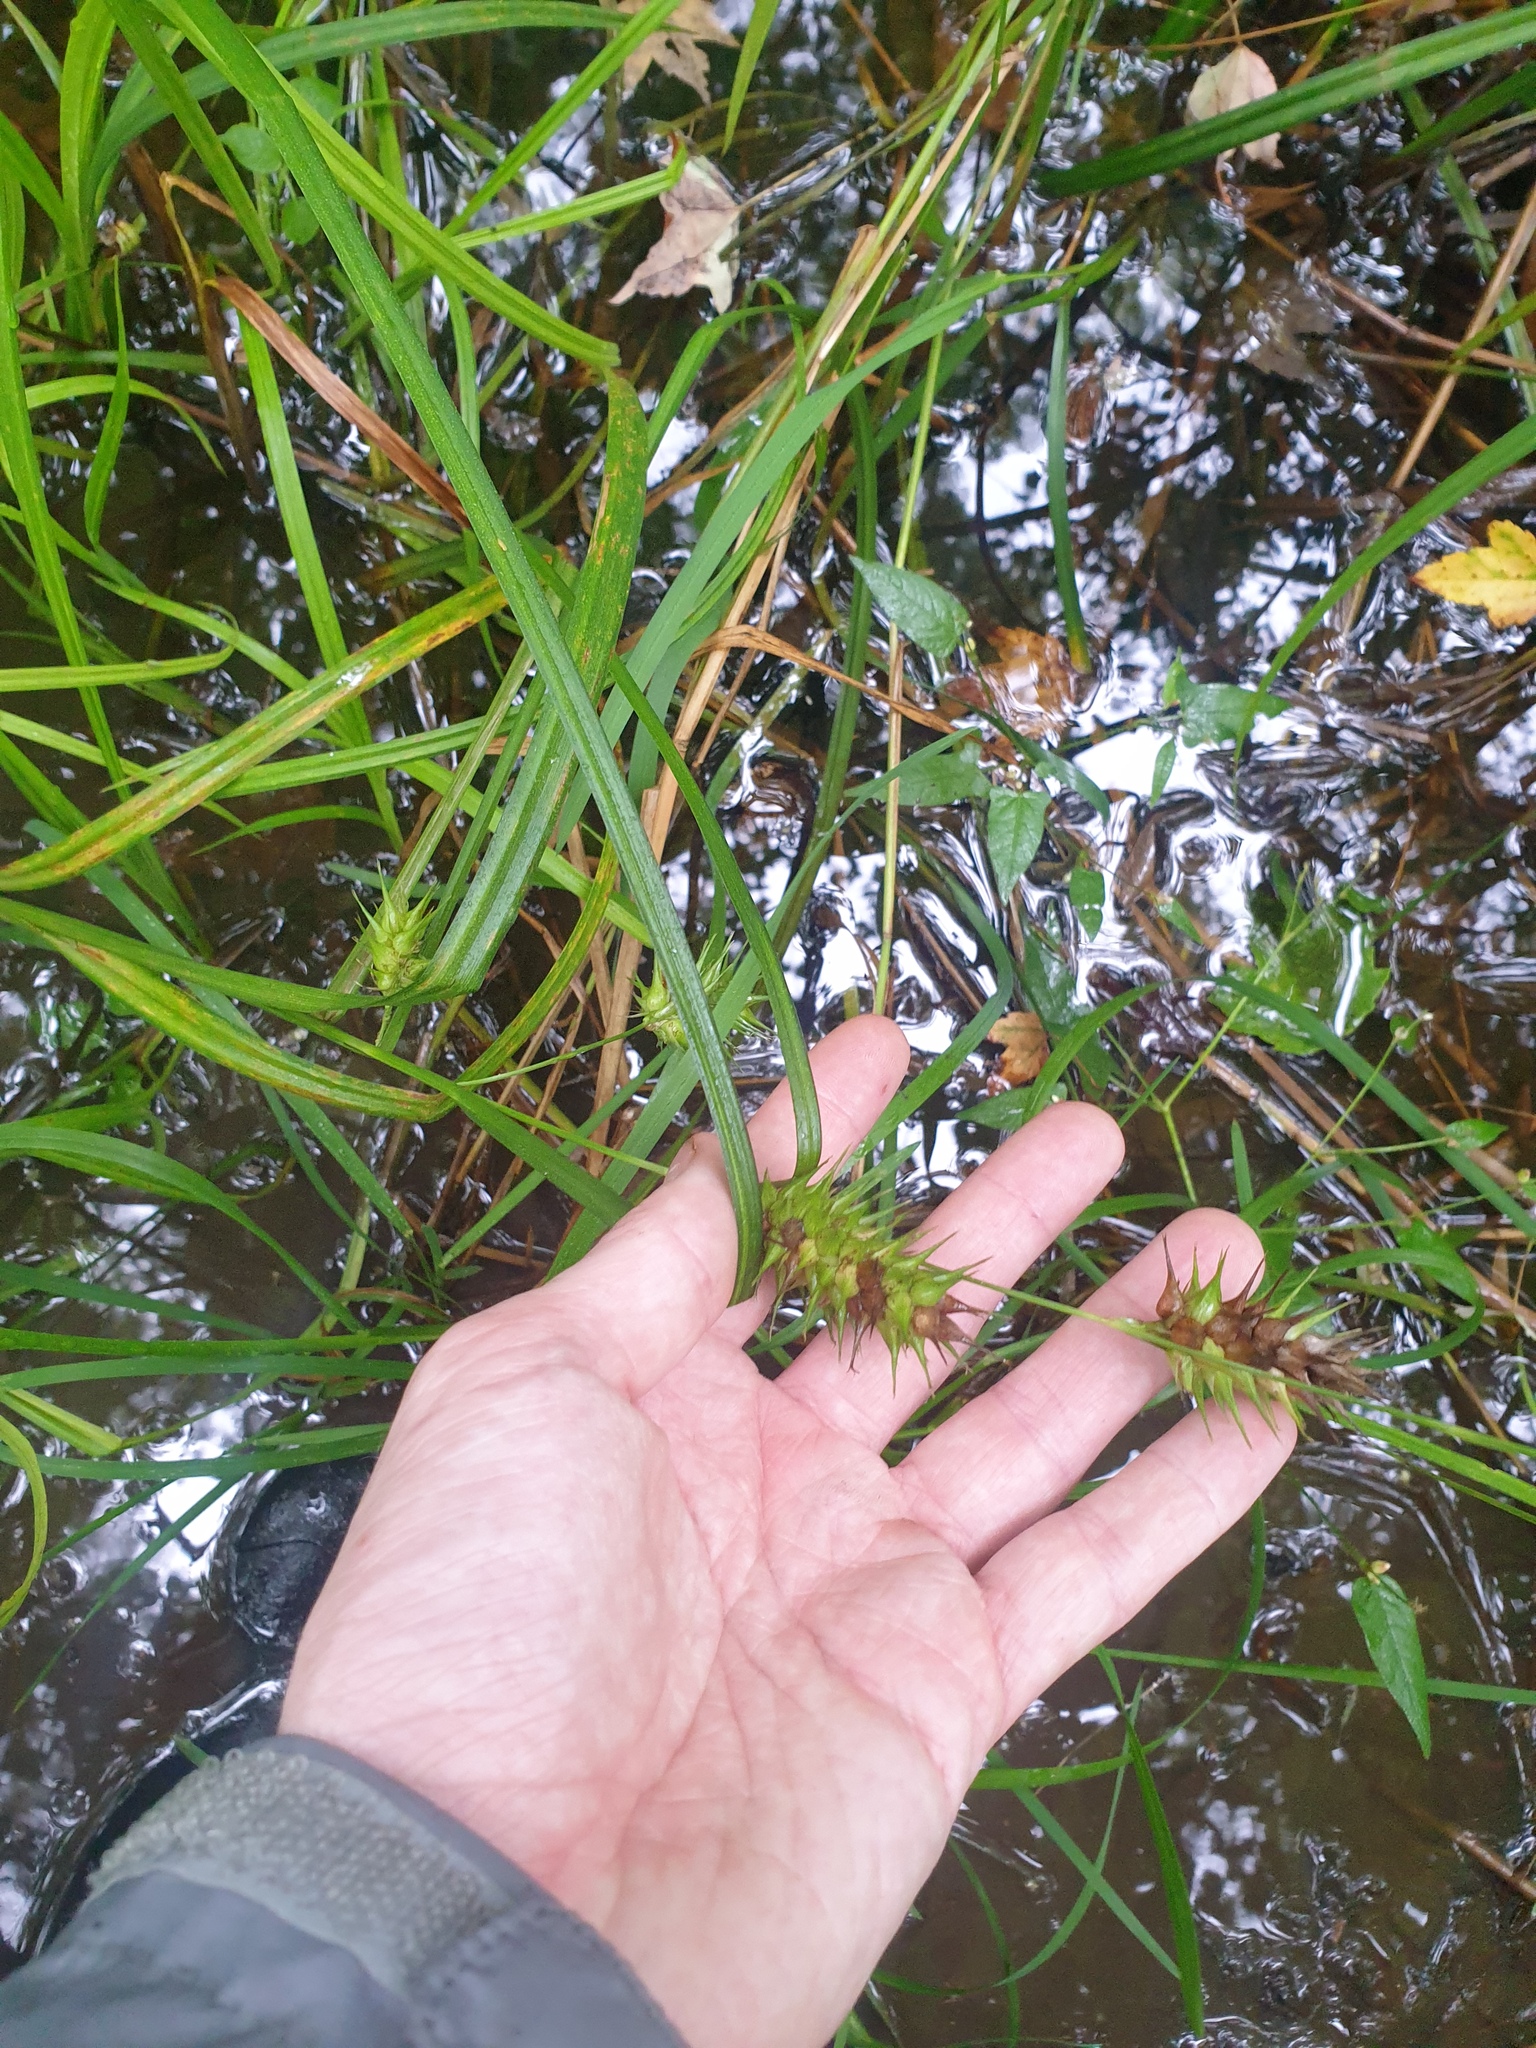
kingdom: Plantae
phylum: Tracheophyta
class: Liliopsida
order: Poales
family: Cyperaceae
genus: Carex
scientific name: Carex lupulina
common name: Hop sedge
